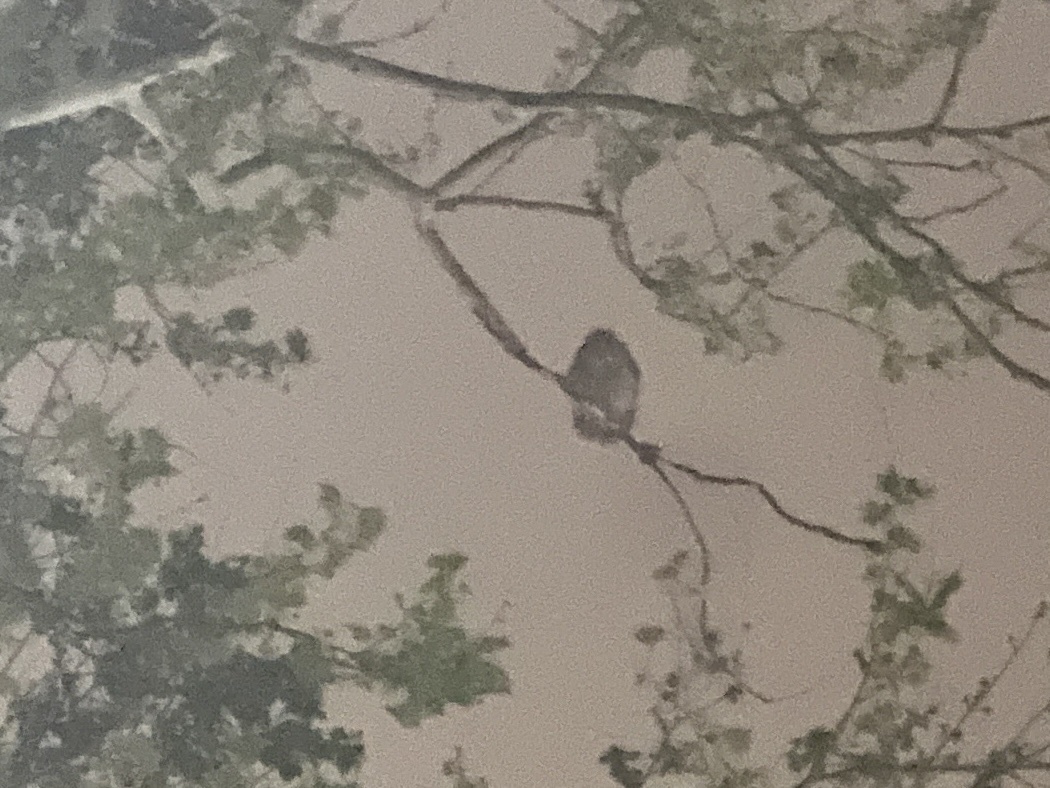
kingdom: Animalia
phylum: Chordata
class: Aves
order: Strigiformes
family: Strigidae
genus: Strix
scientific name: Strix varia
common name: Barred owl
